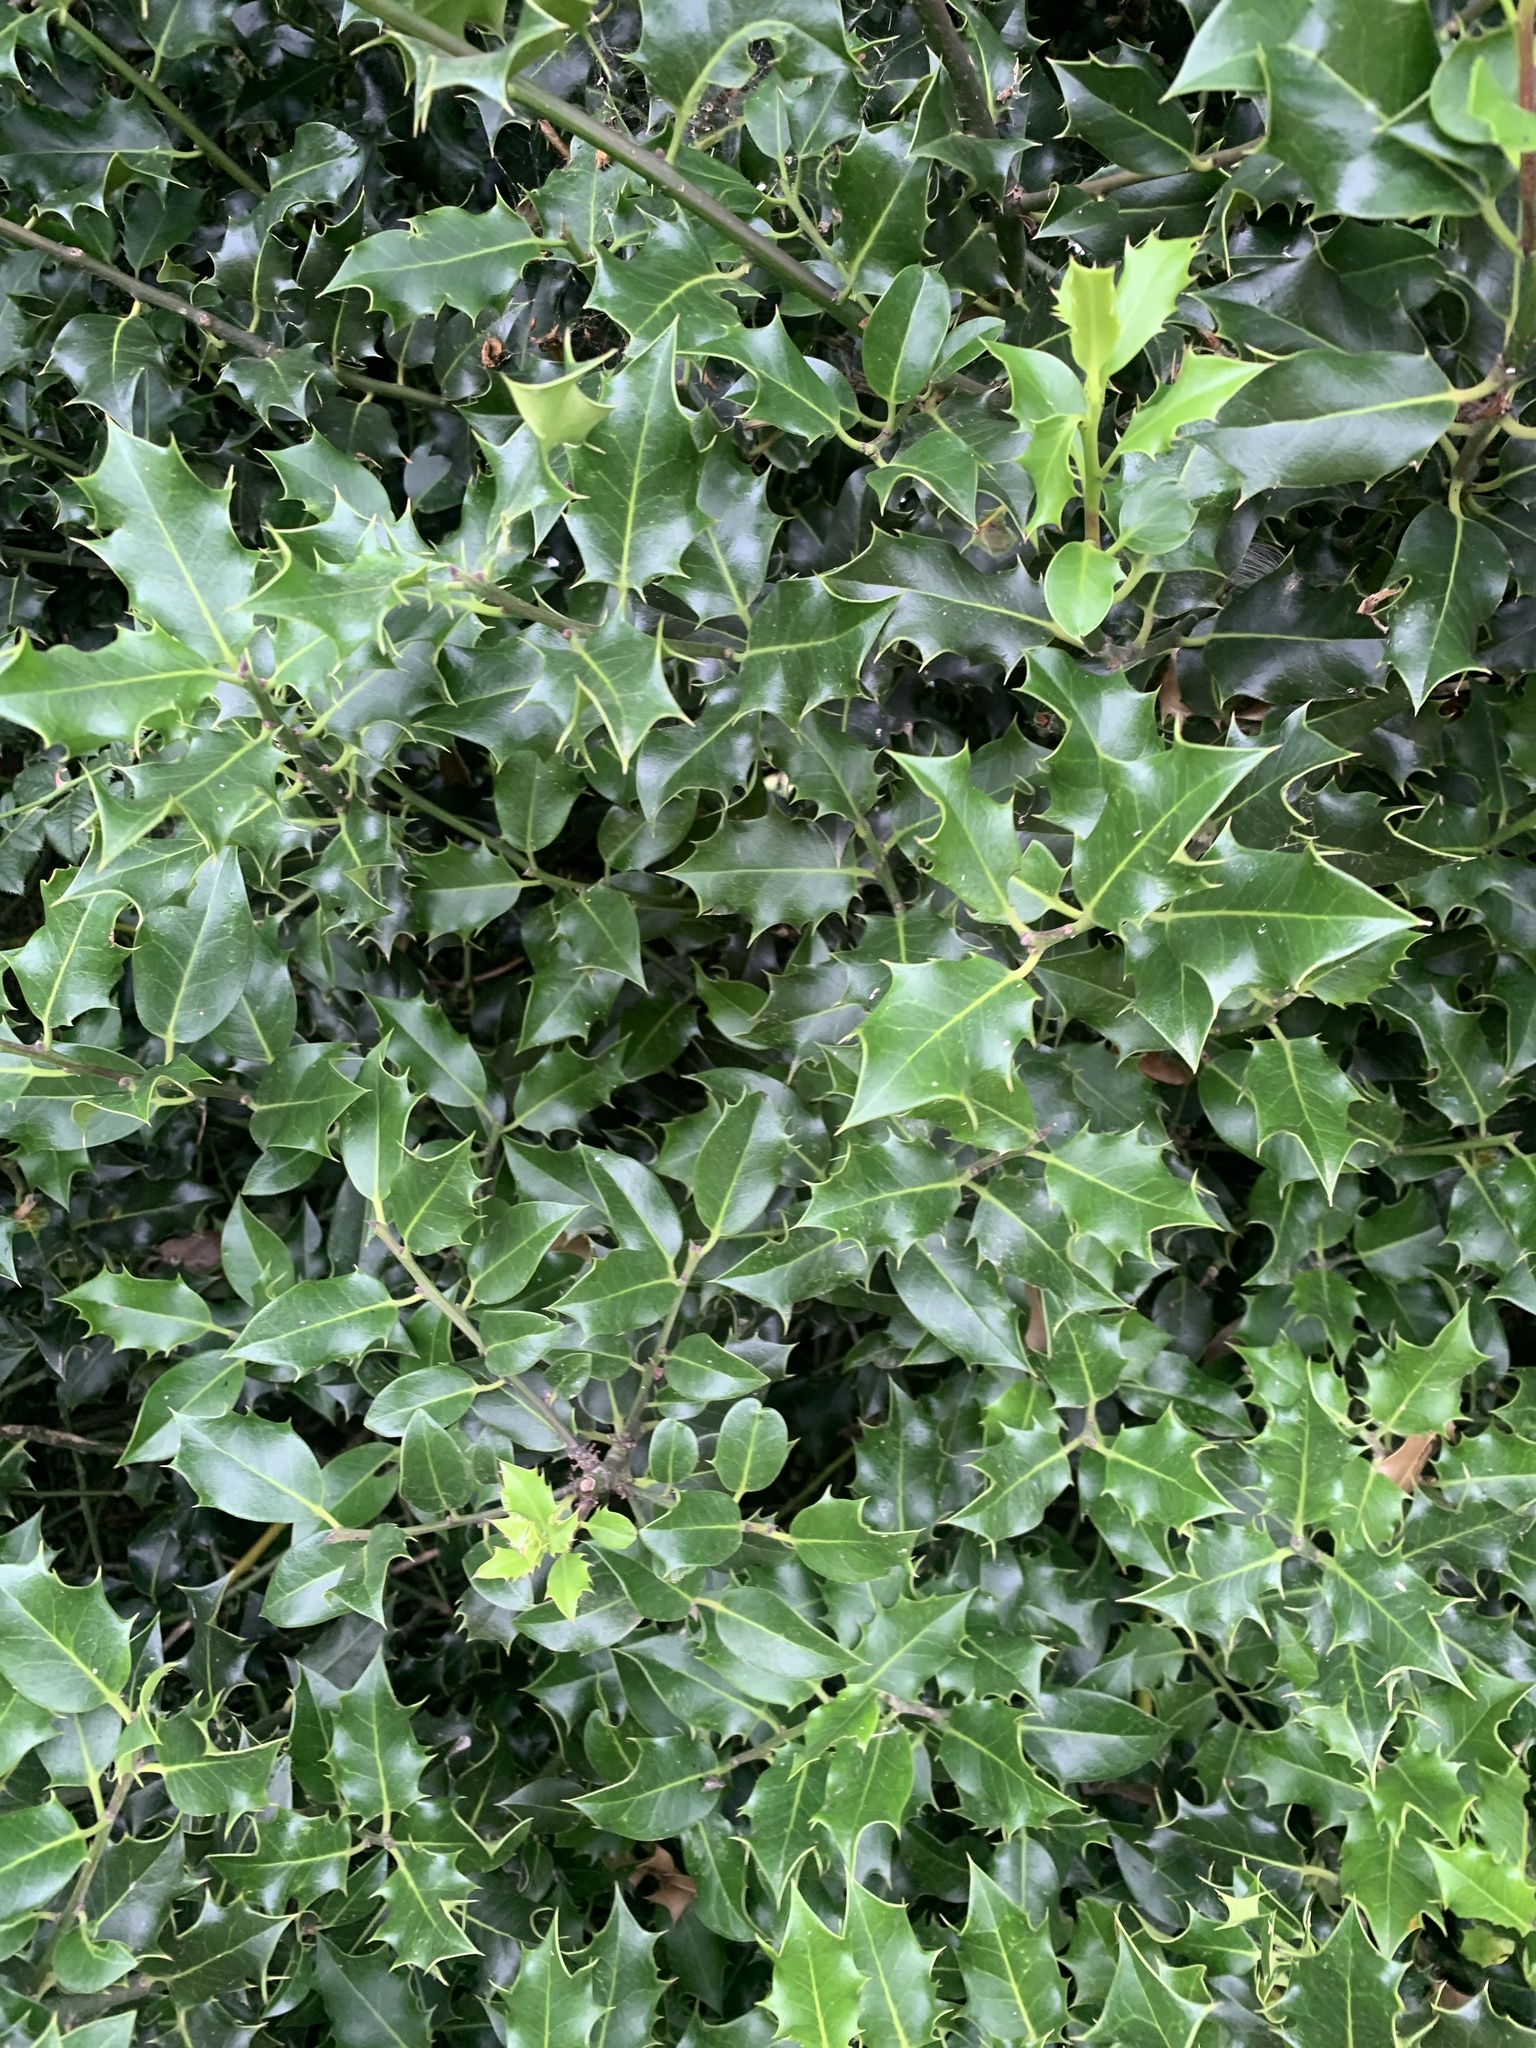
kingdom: Plantae
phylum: Tracheophyta
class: Magnoliopsida
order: Aquifoliales
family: Aquifoliaceae
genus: Ilex
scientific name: Ilex aquifolium
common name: English holly
